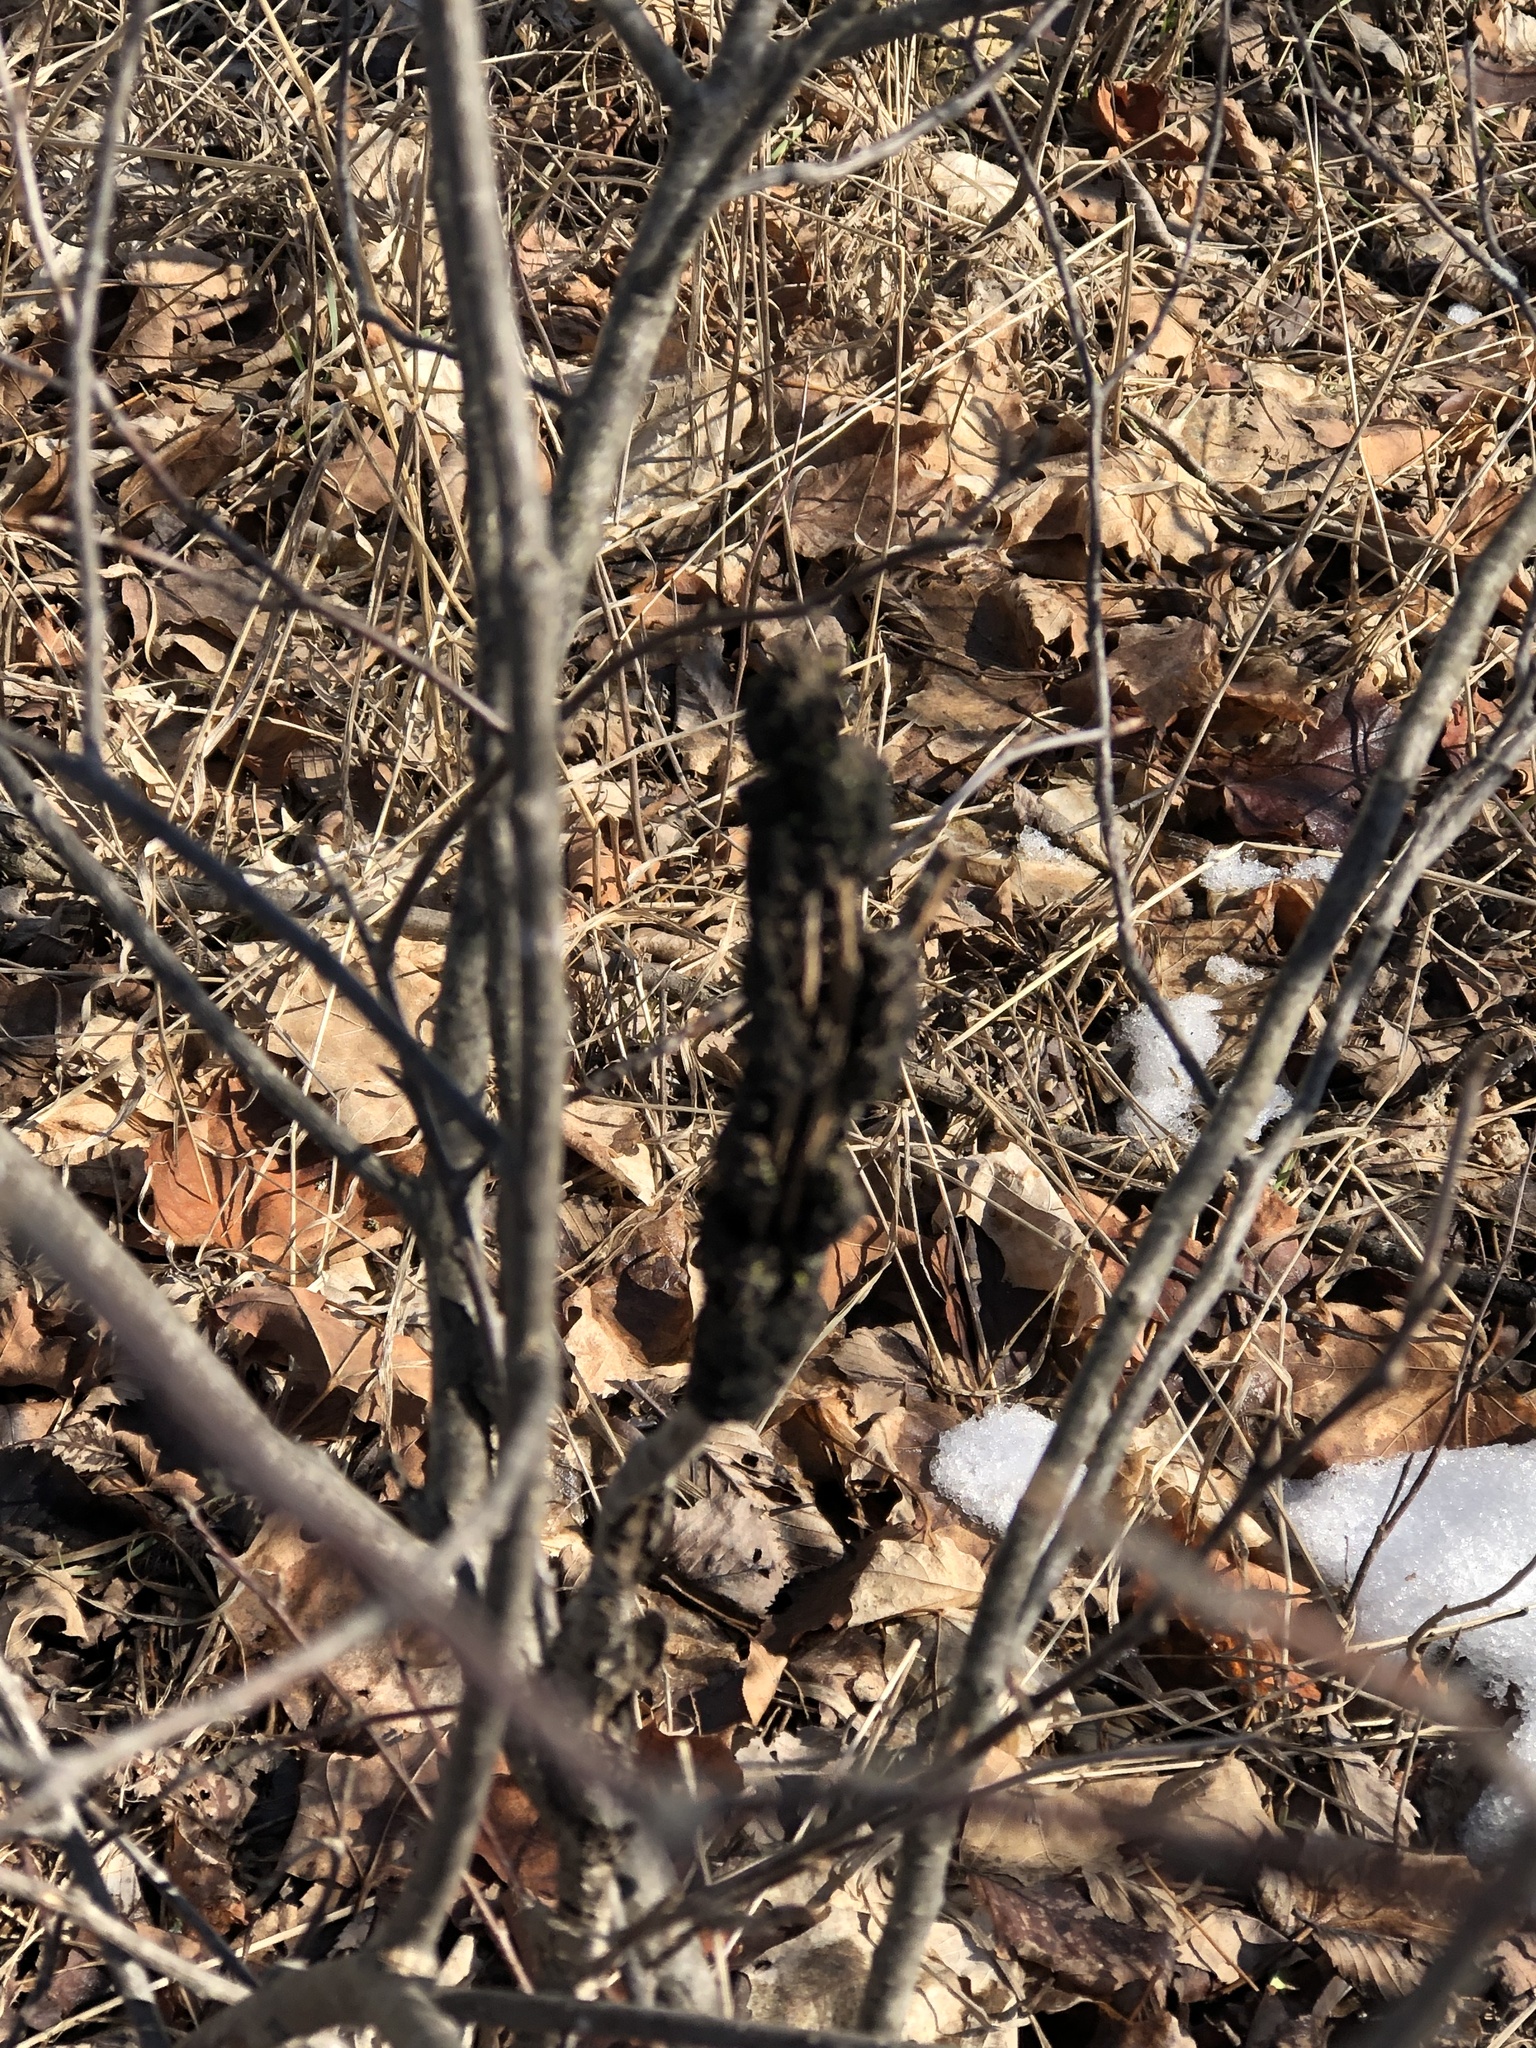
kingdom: Fungi
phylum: Ascomycota
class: Dothideomycetes
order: Venturiales
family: Venturiaceae
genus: Apiosporina
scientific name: Apiosporina morbosa
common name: Black knot
